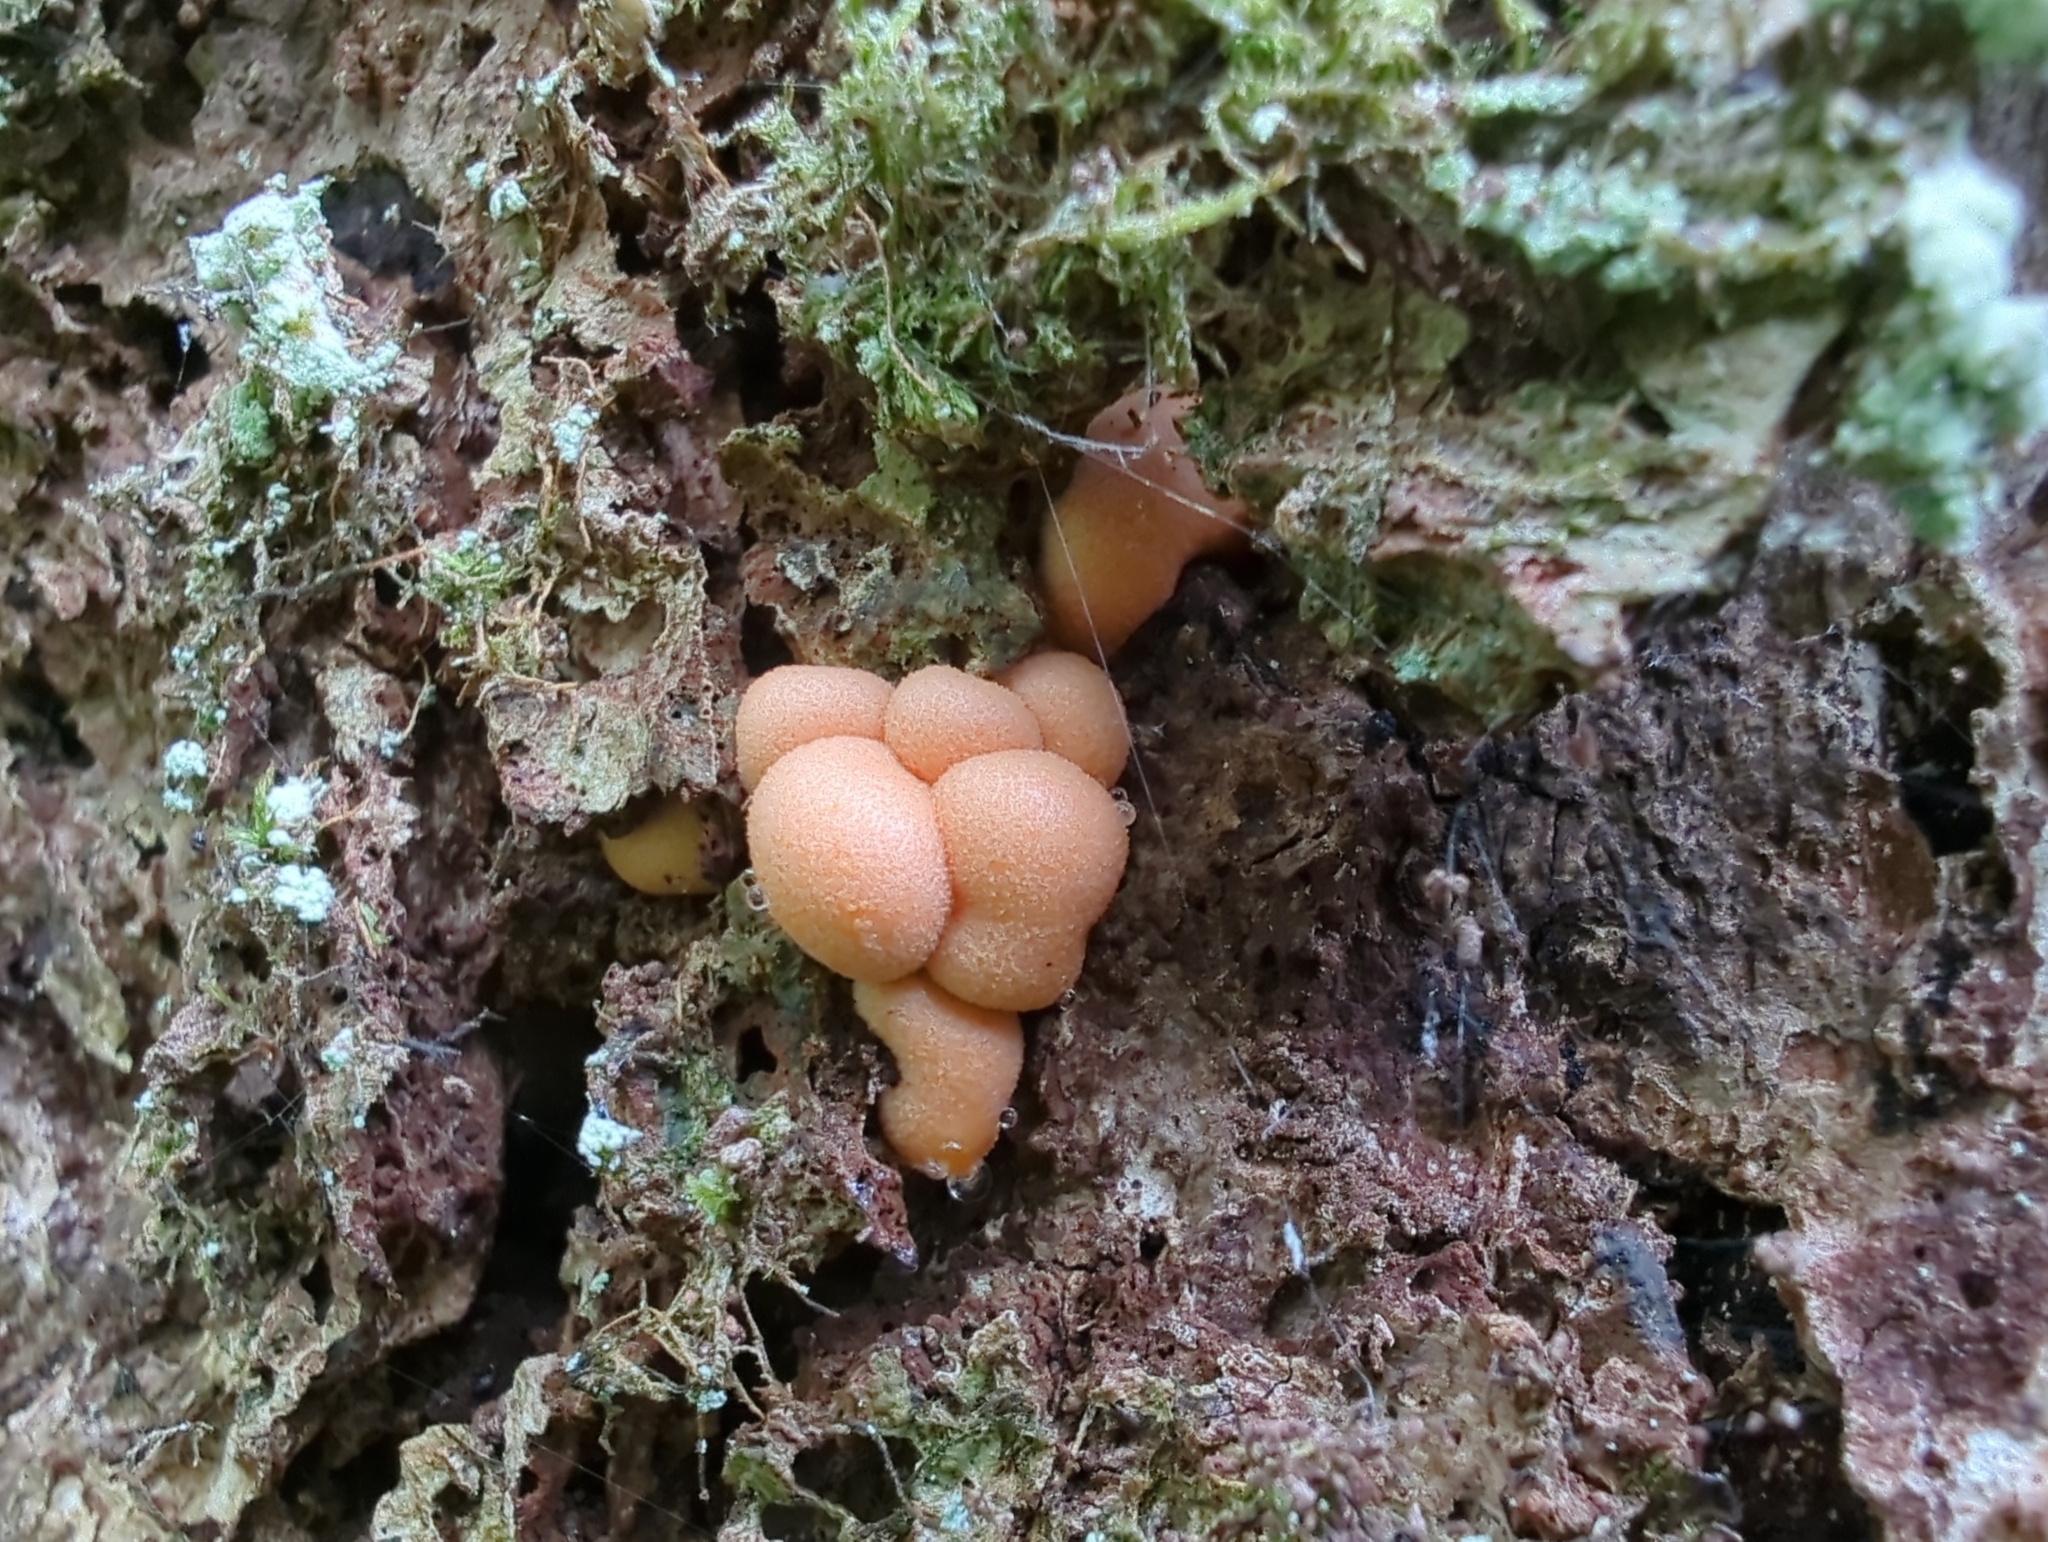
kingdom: Protozoa
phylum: Mycetozoa
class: Myxomycetes
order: Cribrariales
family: Tubiferaceae
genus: Lycogala
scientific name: Lycogala epidendrum
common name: Wolf's milk
